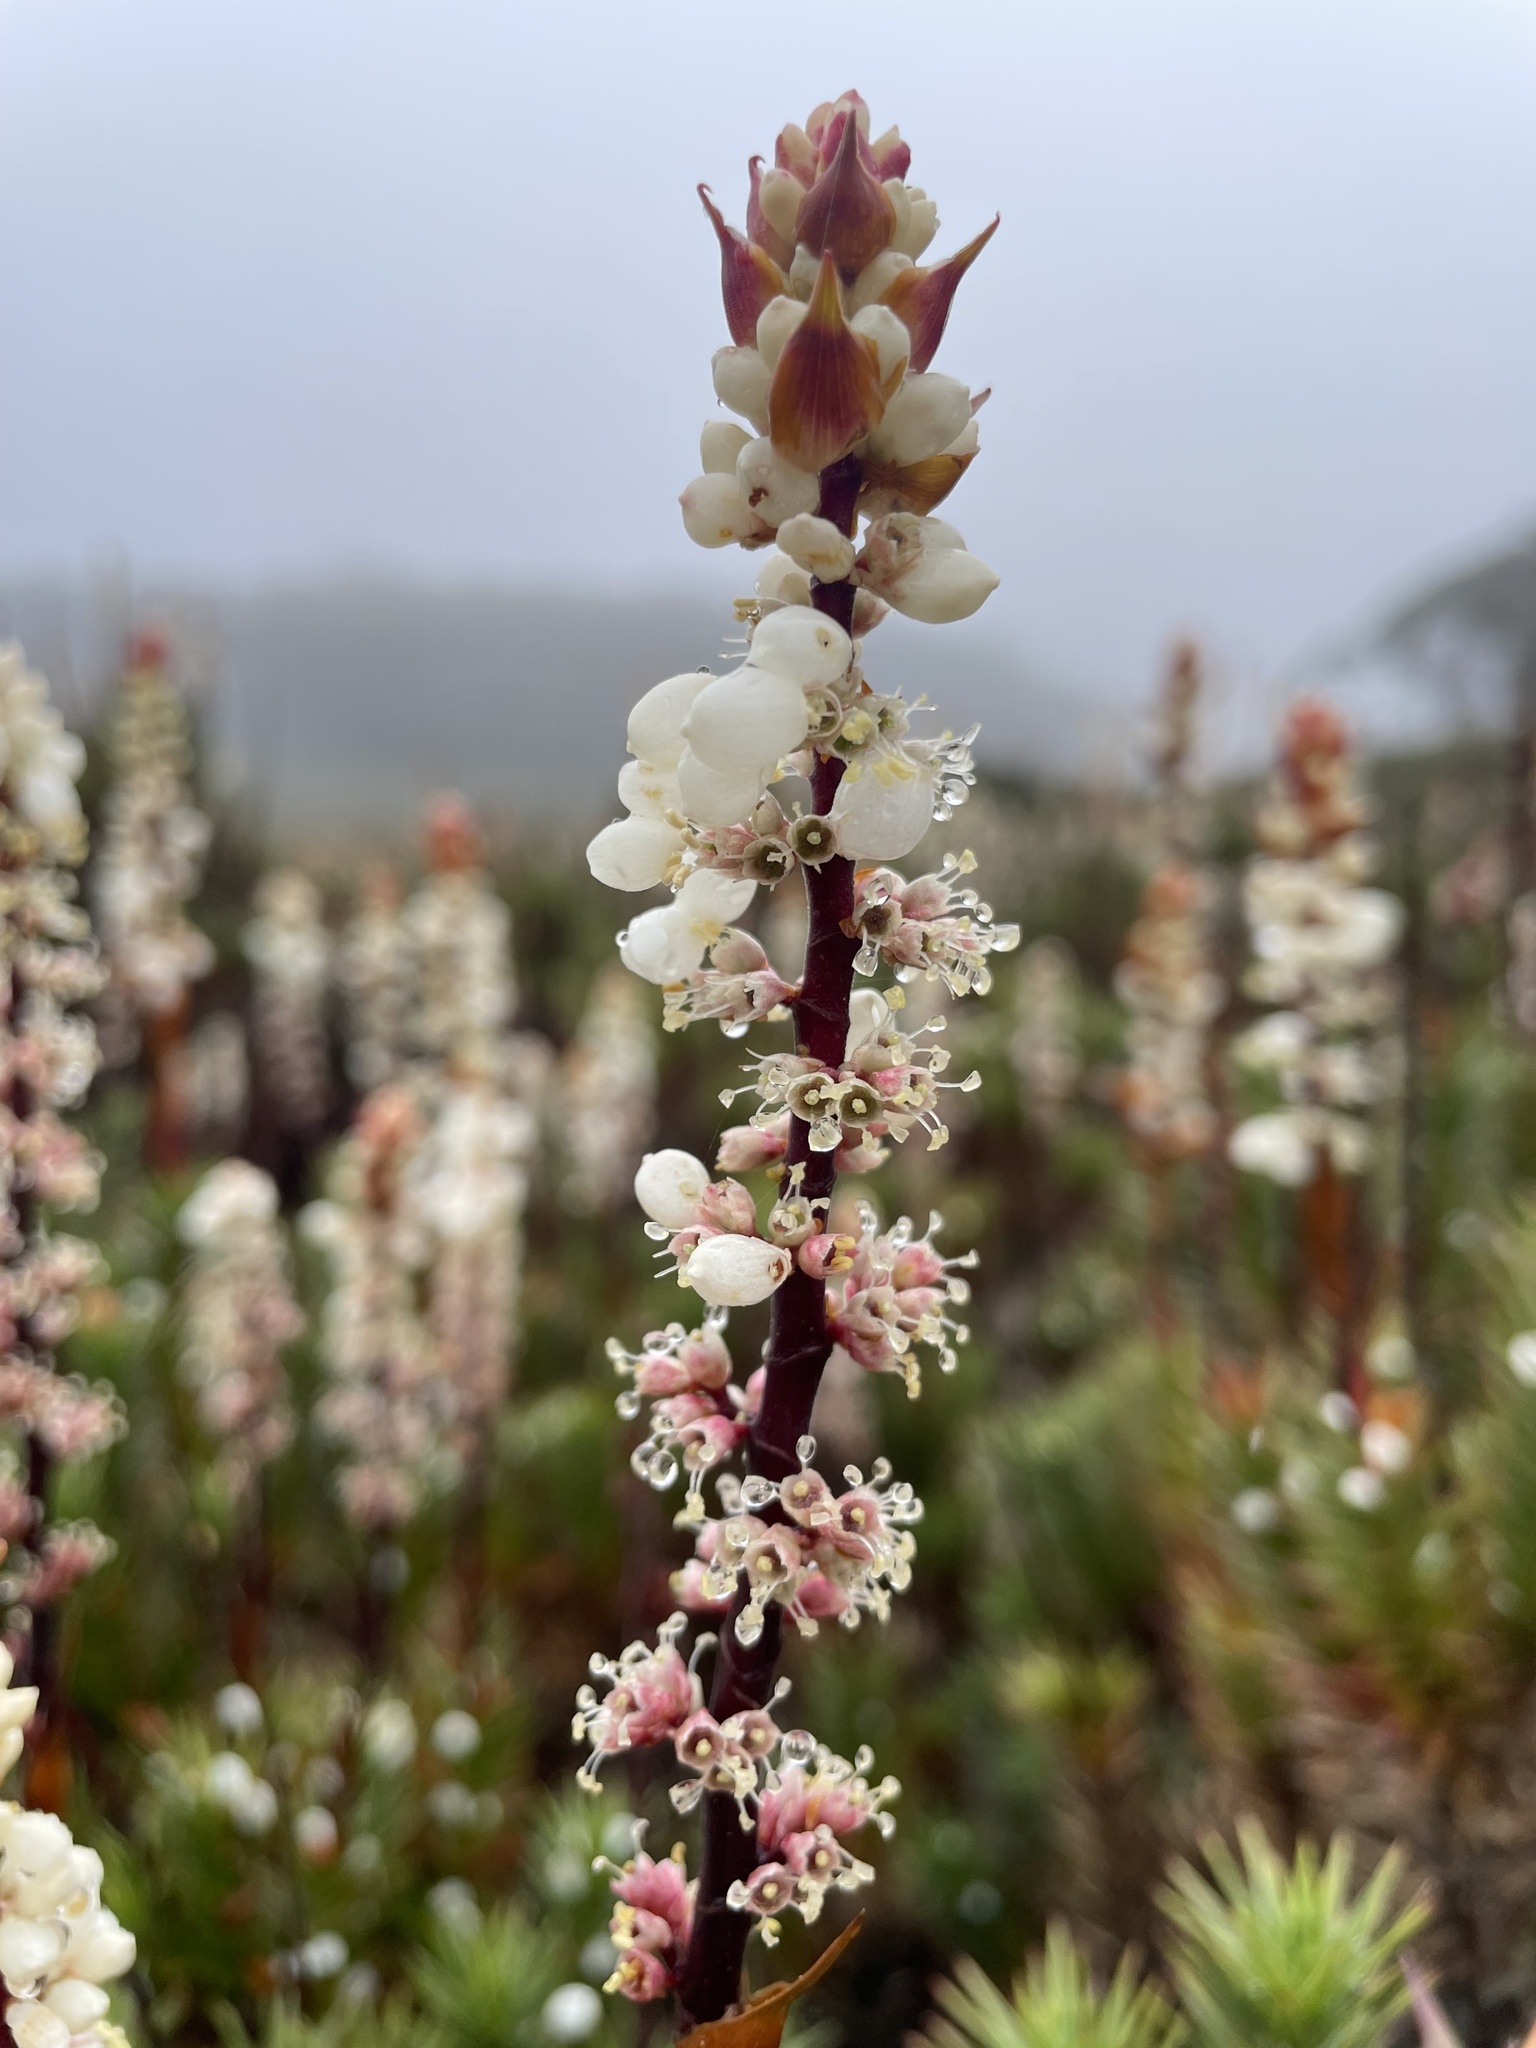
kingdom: Plantae
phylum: Tracheophyta
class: Magnoliopsida
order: Ericales
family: Ericaceae
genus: Dracophyllum
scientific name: Dracophyllum continentis
